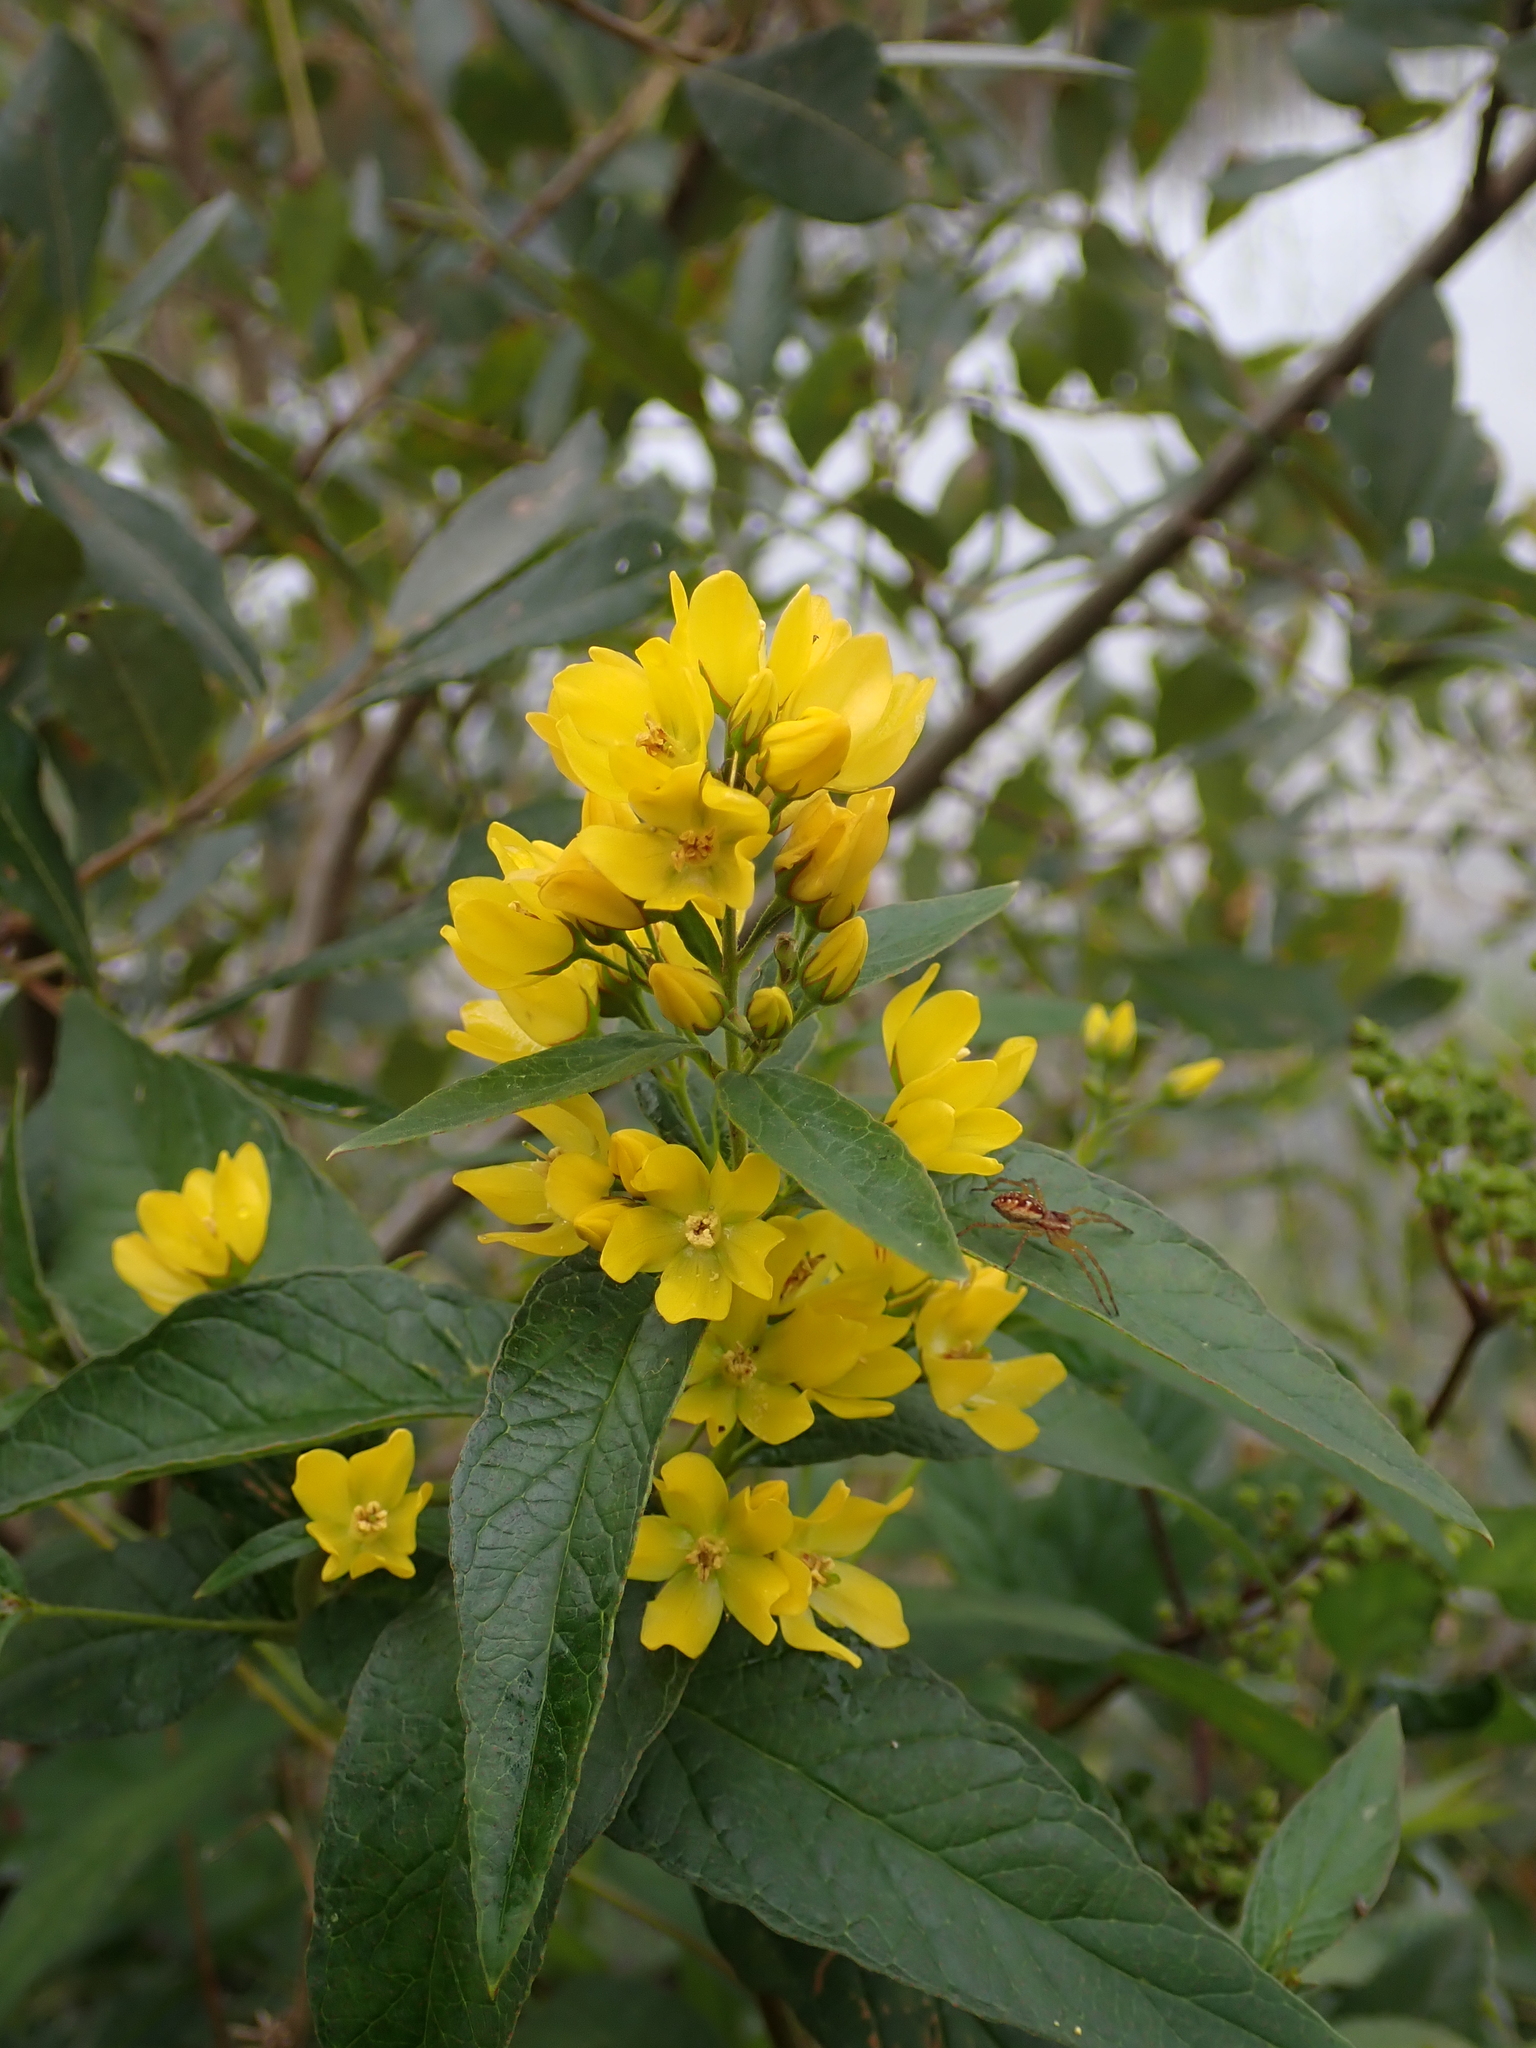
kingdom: Plantae
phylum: Tracheophyta
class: Magnoliopsida
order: Ericales
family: Primulaceae
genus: Lysimachia
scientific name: Lysimachia vulgaris
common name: Yellow loosestrife
